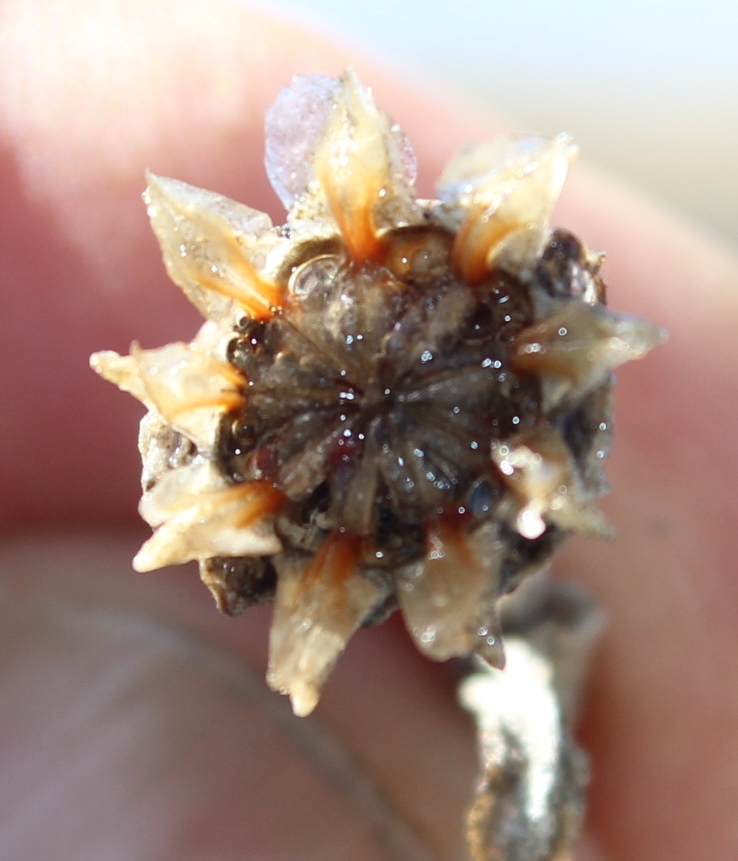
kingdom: Plantae
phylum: Tracheophyta
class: Magnoliopsida
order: Caryophyllales
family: Aizoaceae
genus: Malephora
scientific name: Malephora crassa
